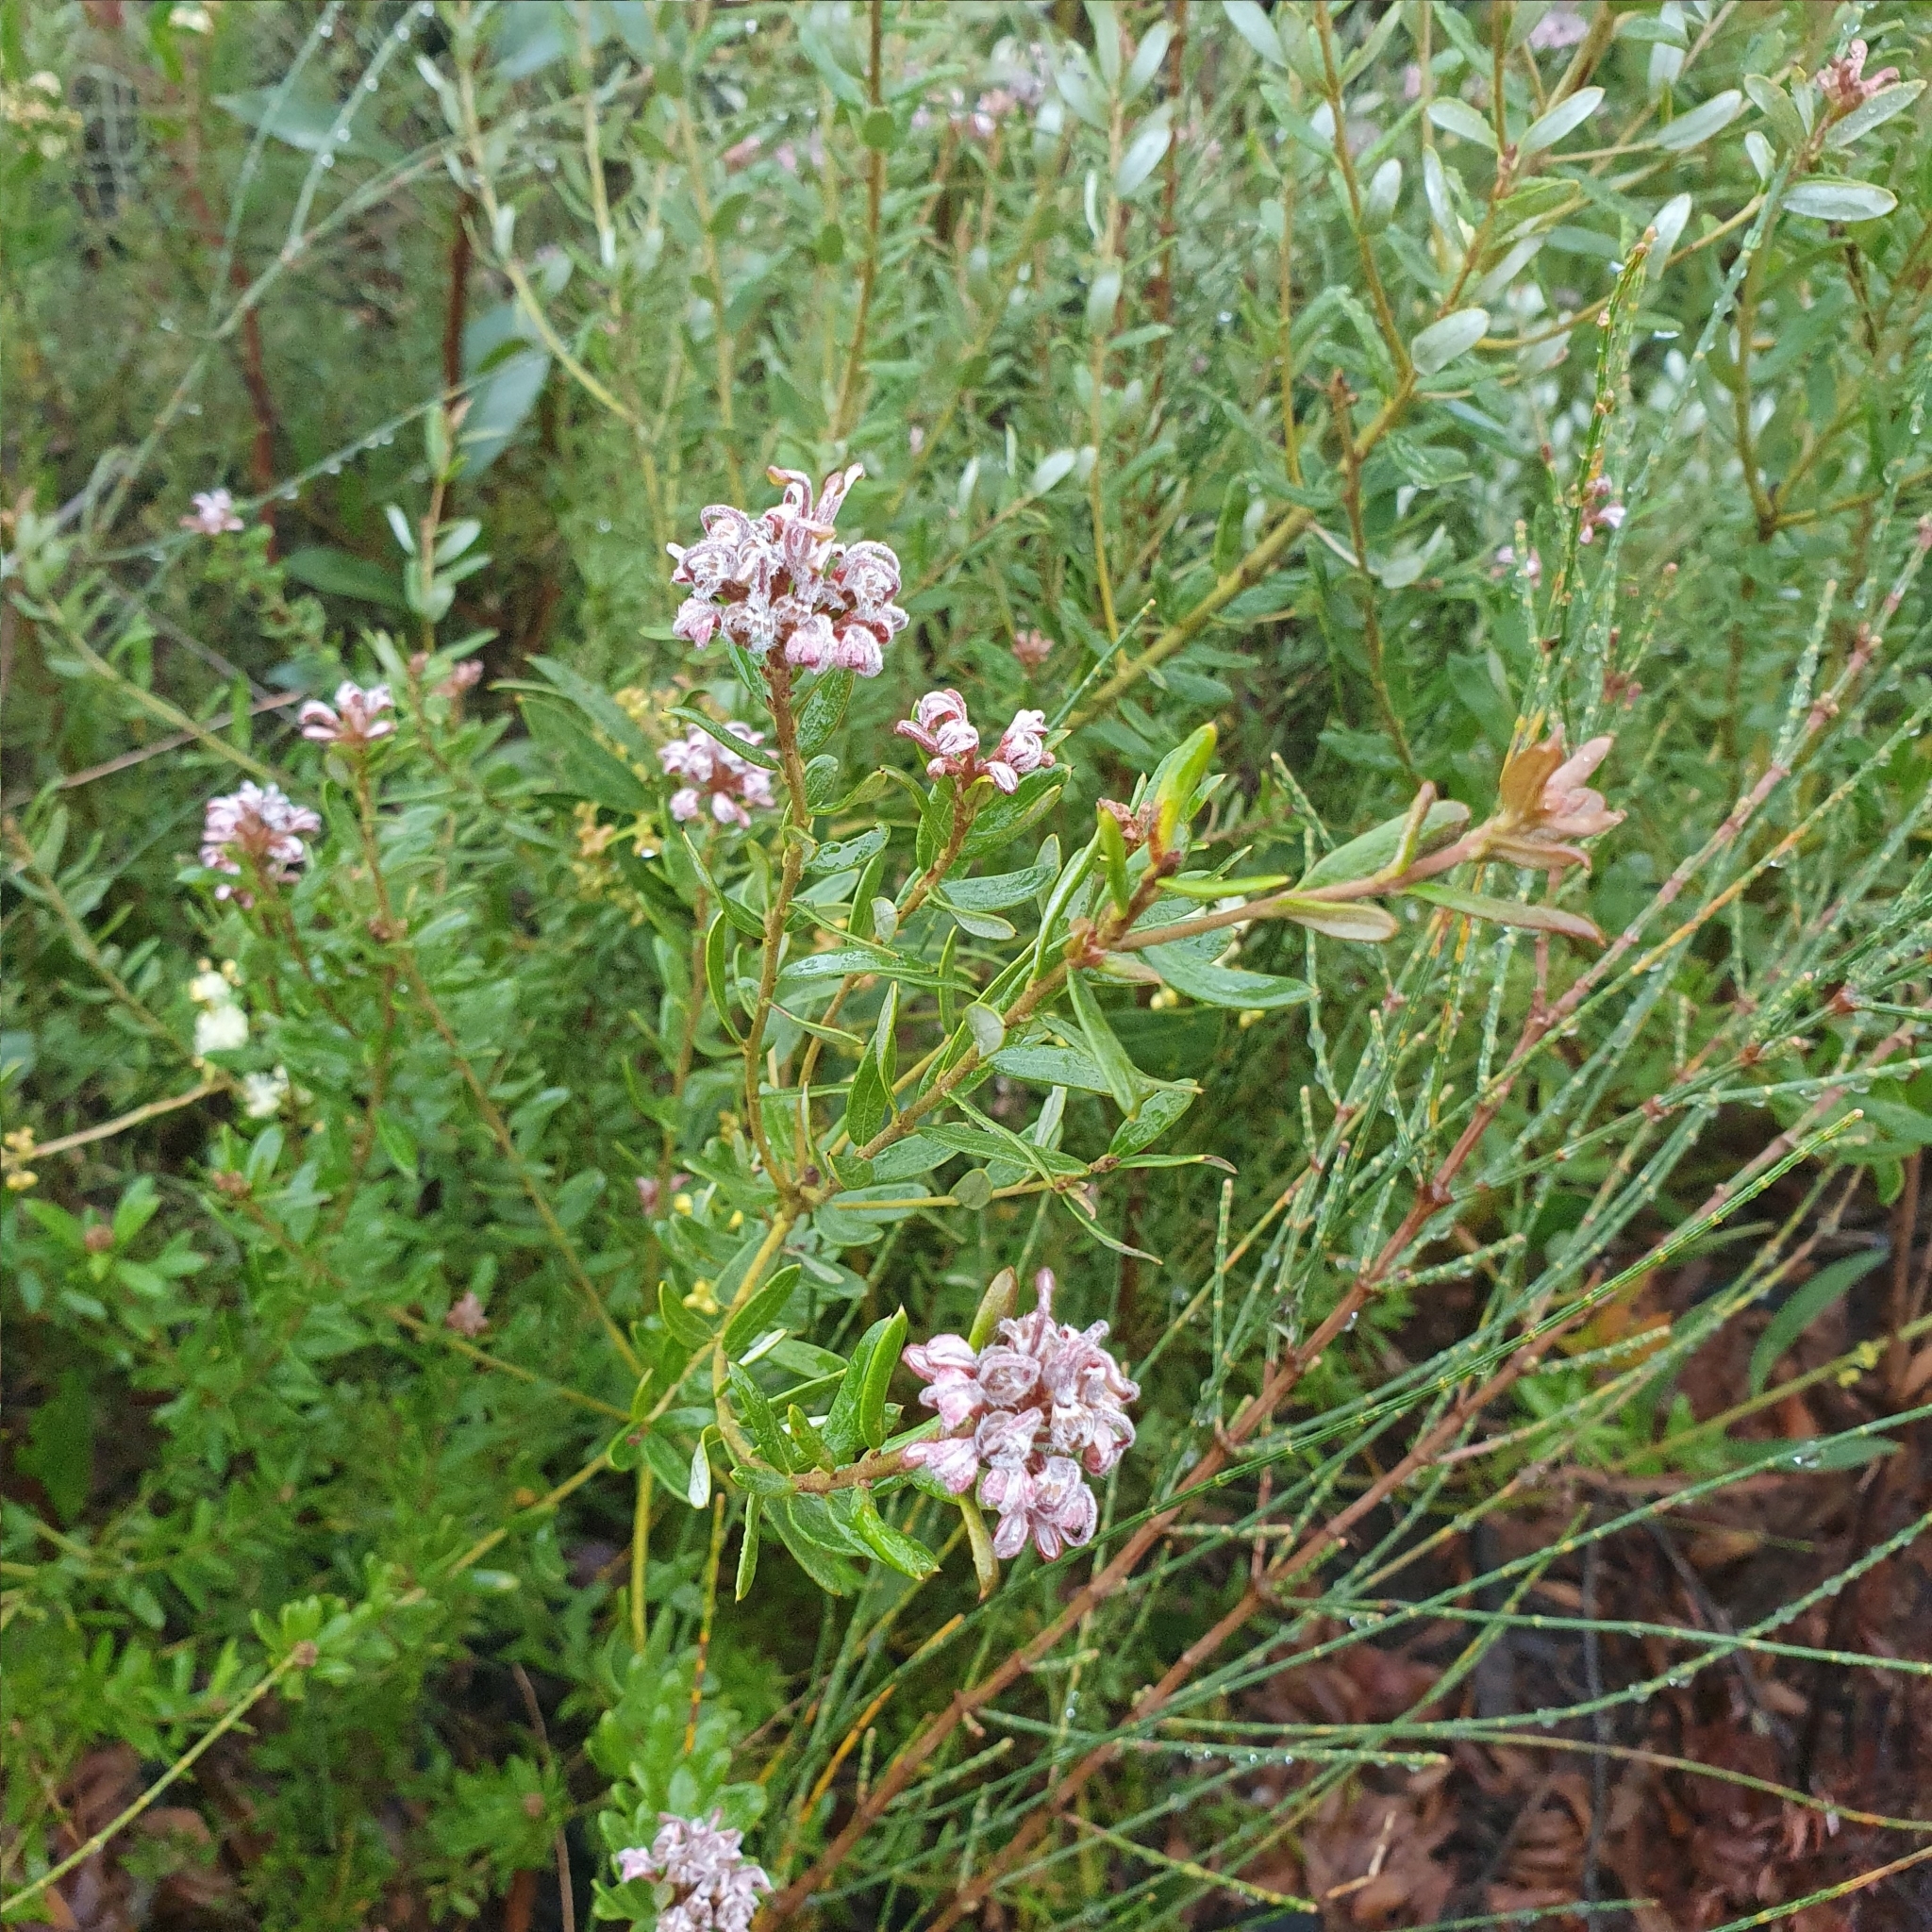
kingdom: Plantae
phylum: Tracheophyta
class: Magnoliopsida
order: Proteales
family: Proteaceae
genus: Grevillea
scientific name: Grevillea sphacelata
